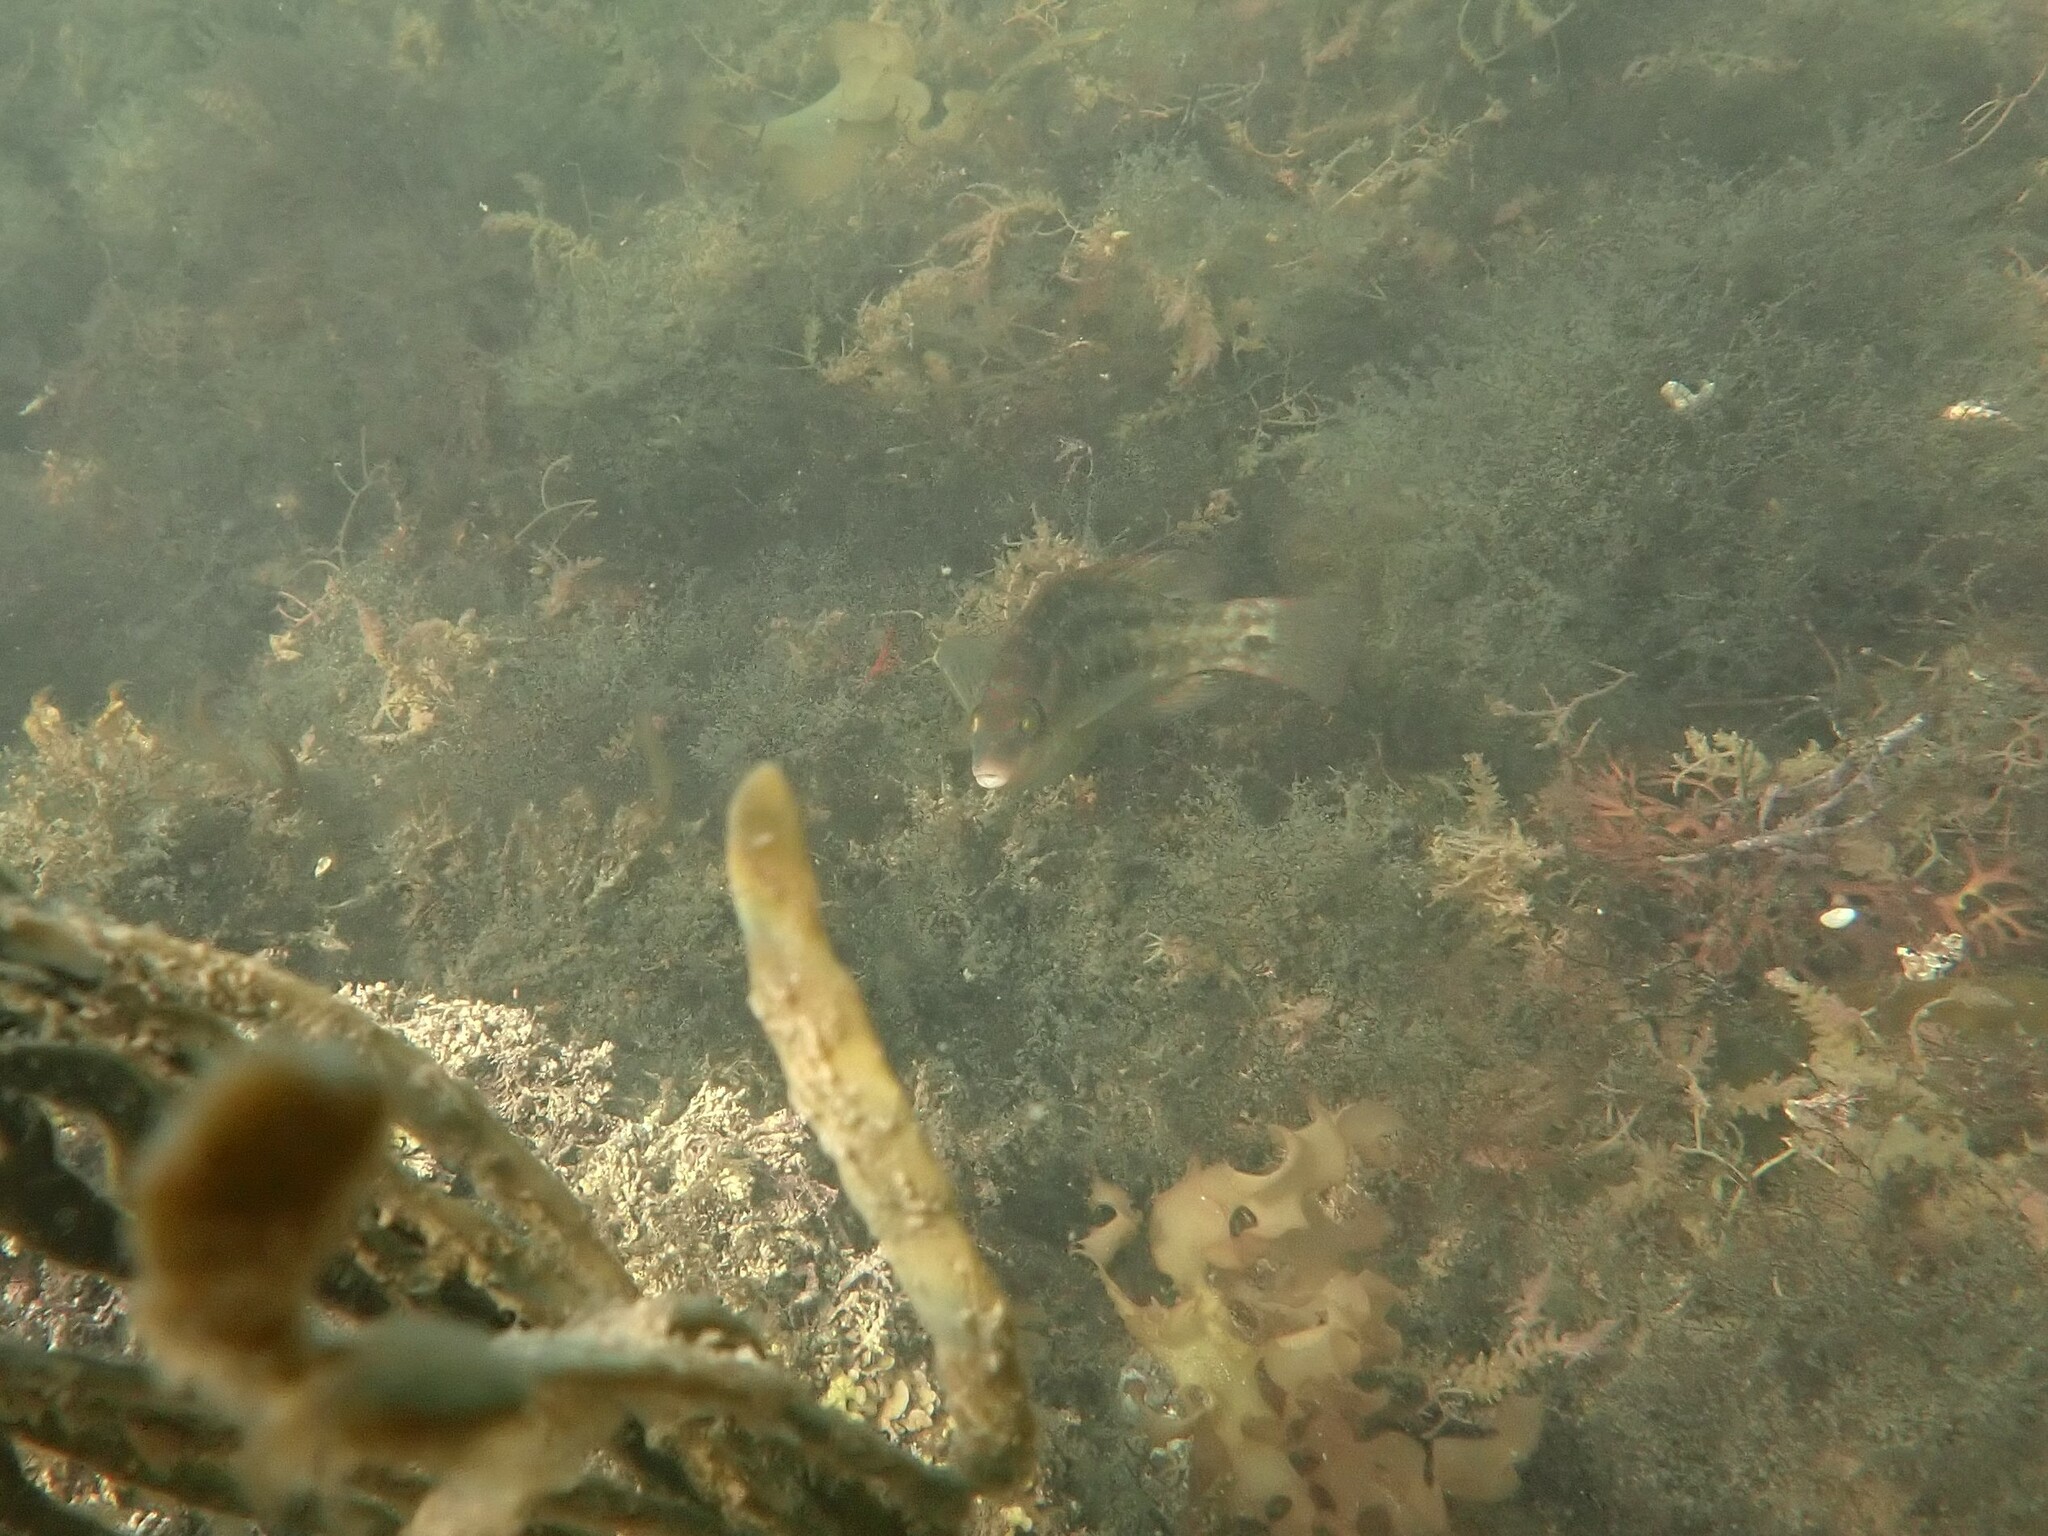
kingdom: Animalia
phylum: Chordata
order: Perciformes
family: Labridae
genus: Symphodus
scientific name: Symphodus melops
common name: Corkwing
